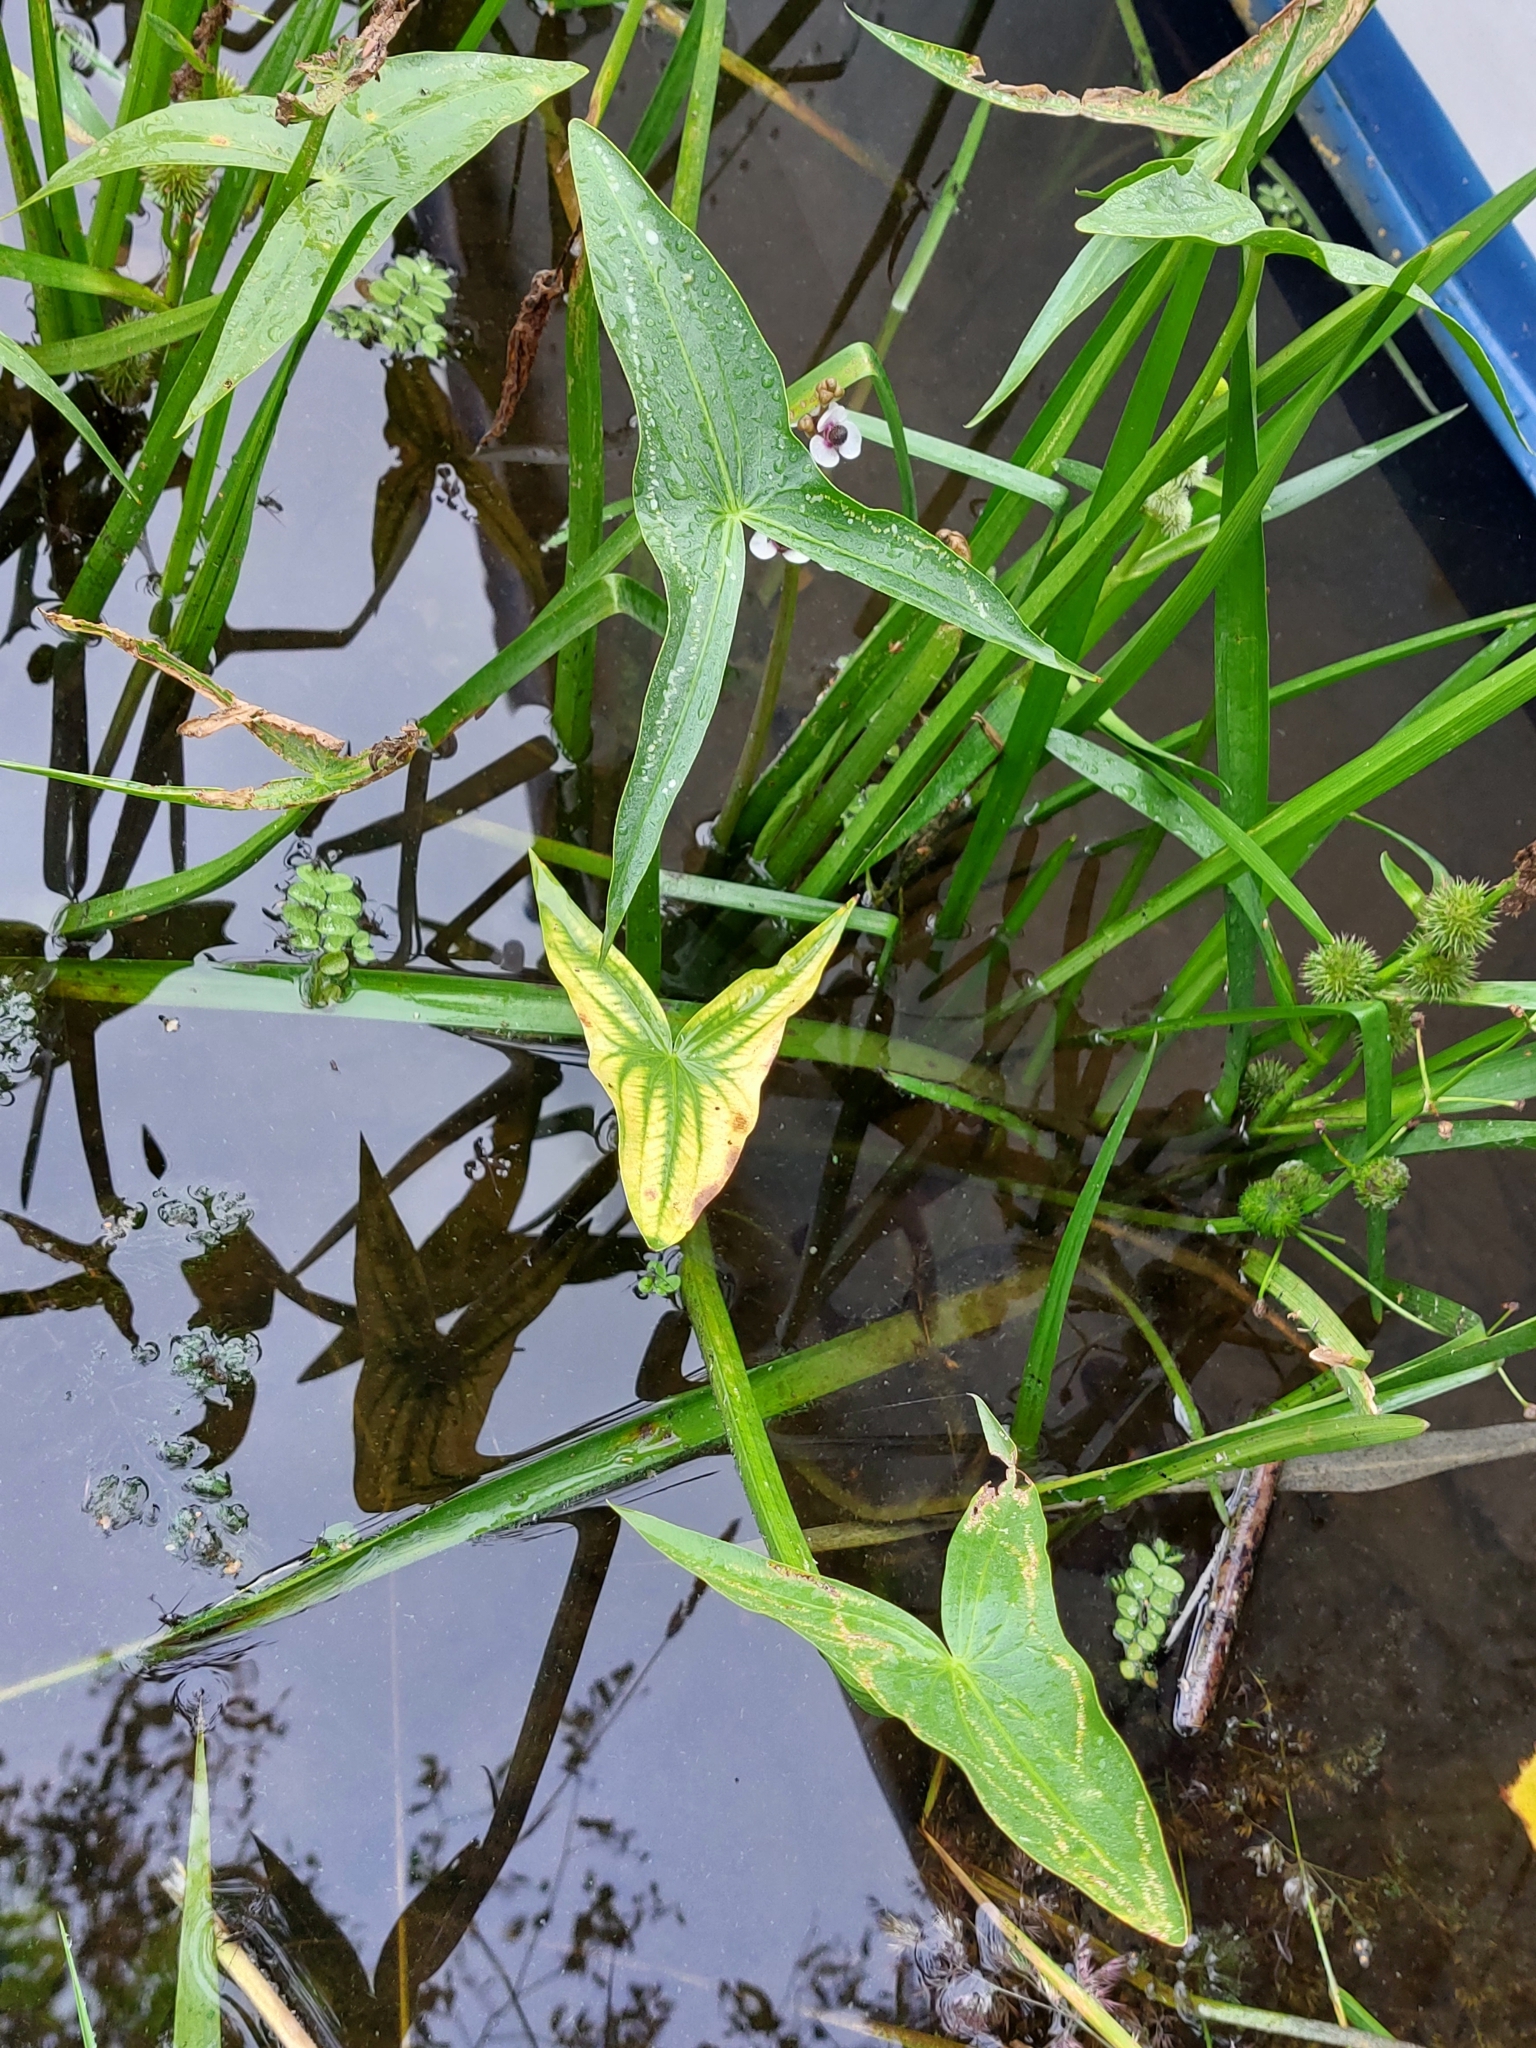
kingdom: Plantae
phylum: Tracheophyta
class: Liliopsida
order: Alismatales
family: Alismataceae
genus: Sagittaria
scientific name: Sagittaria sagittifolia
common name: Arrowhead
